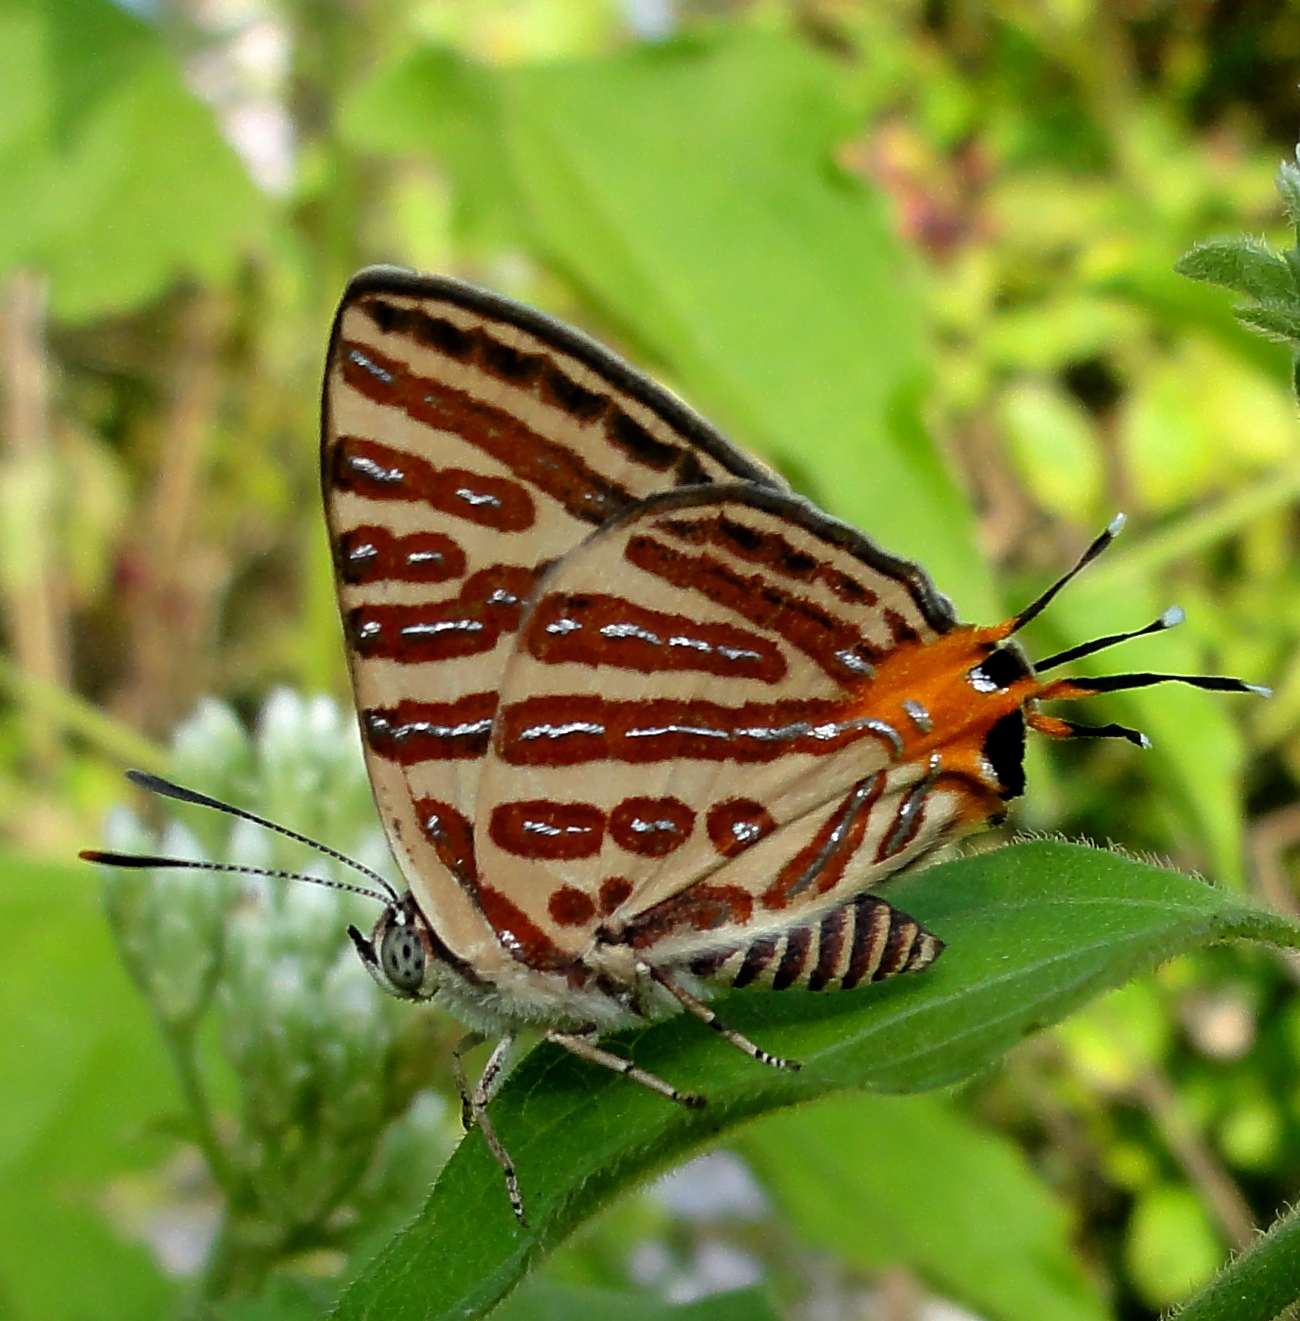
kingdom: Animalia
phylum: Arthropoda
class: Insecta
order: Lepidoptera
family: Lycaenidae
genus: Cigaritis
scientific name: Cigaritis syama
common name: Club silverline
